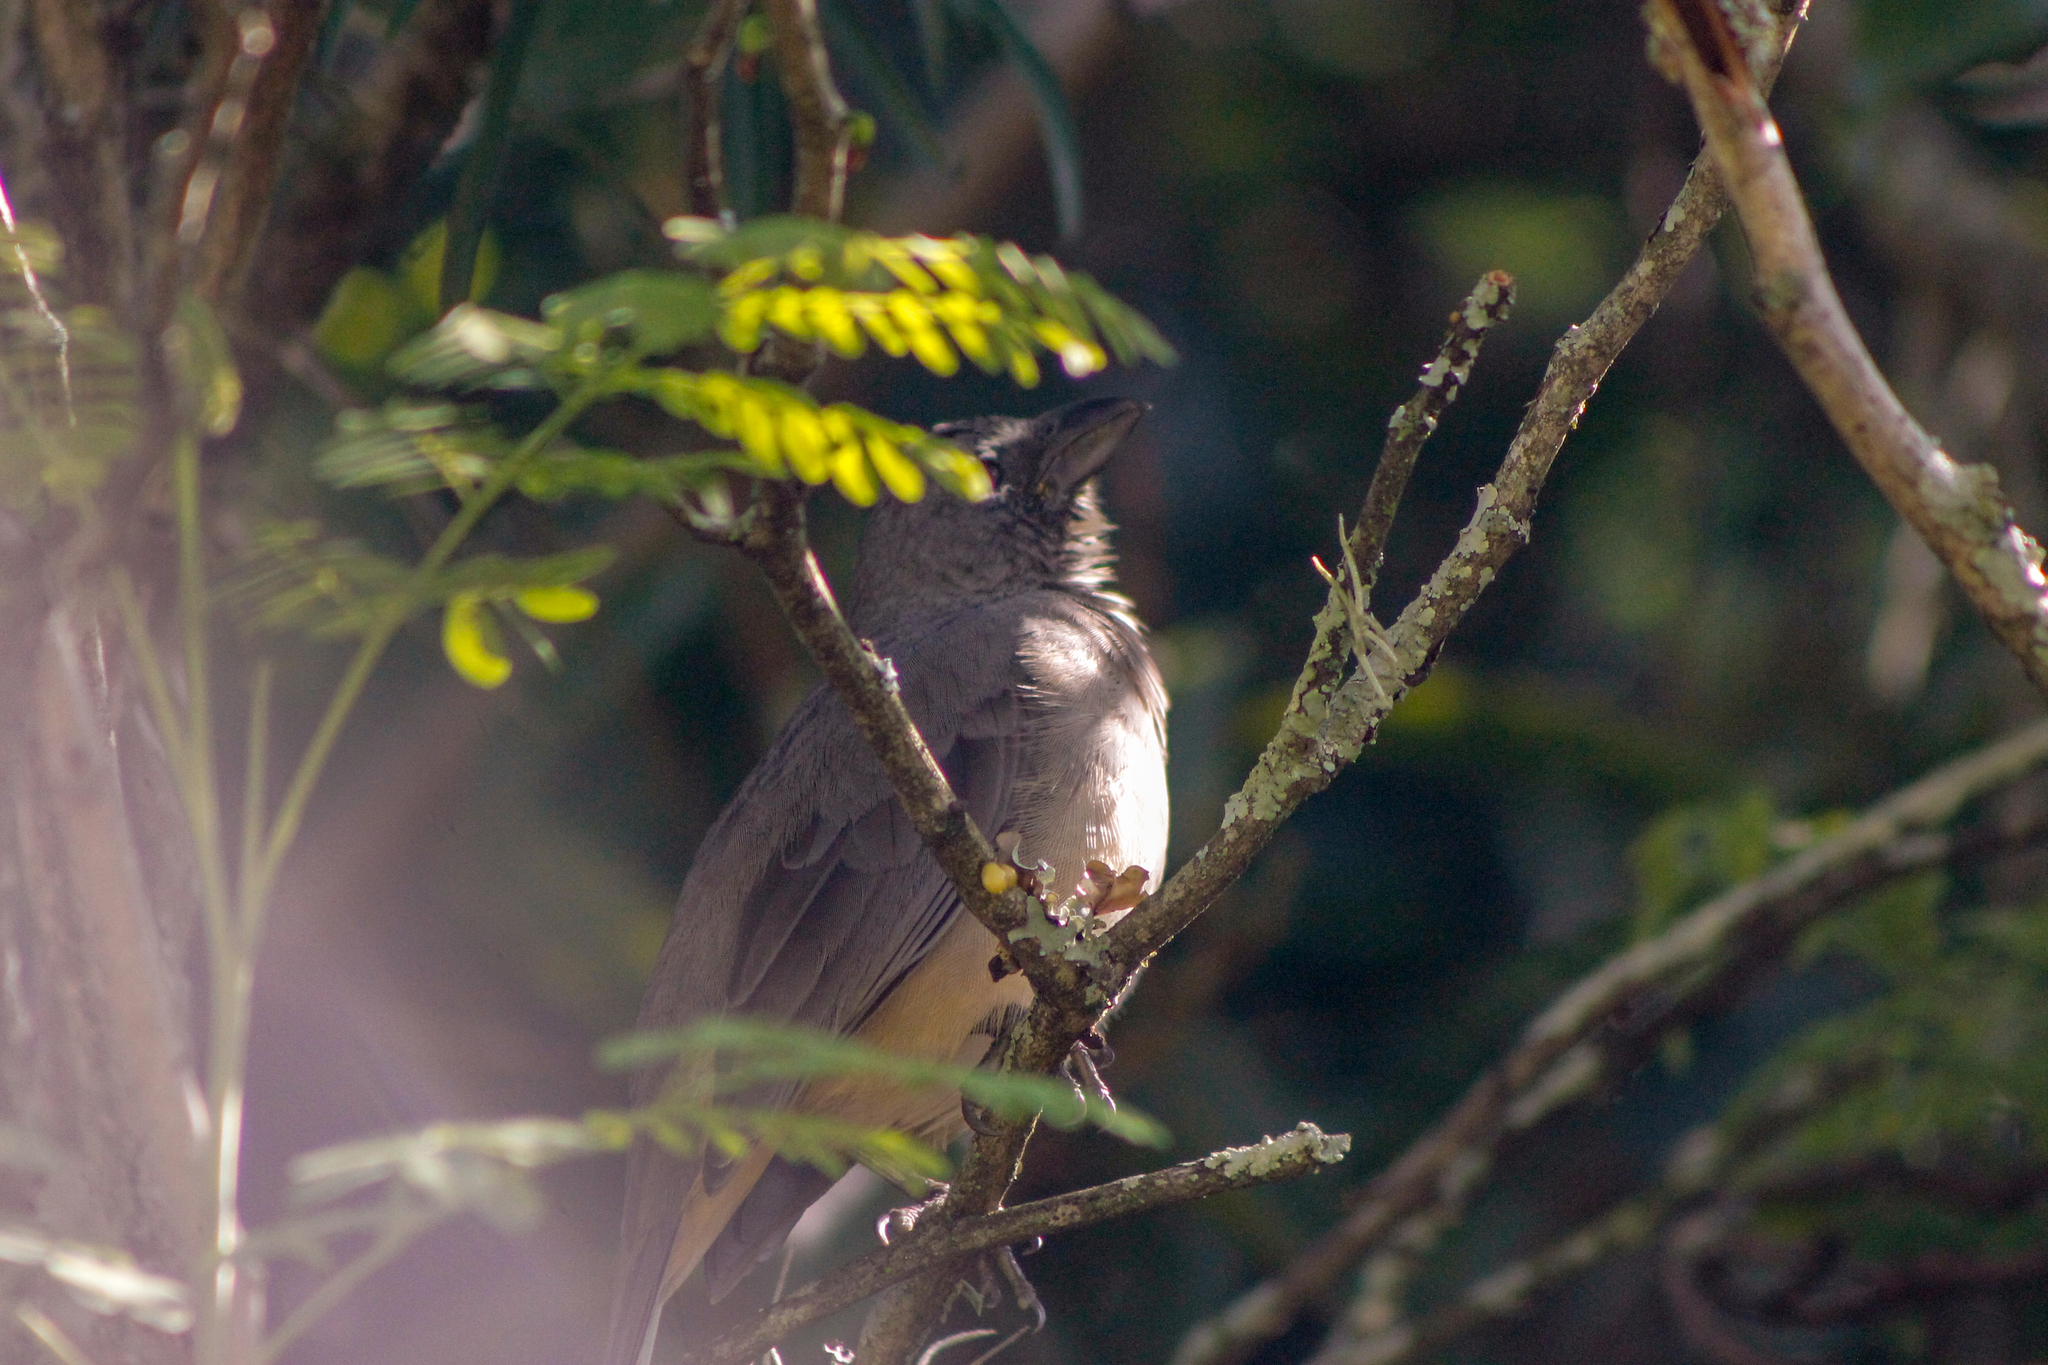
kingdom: Animalia
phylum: Chordata
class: Aves
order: Passeriformes
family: Thraupidae
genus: Saltator
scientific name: Saltator olivascens
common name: Caribbean grey saltator
